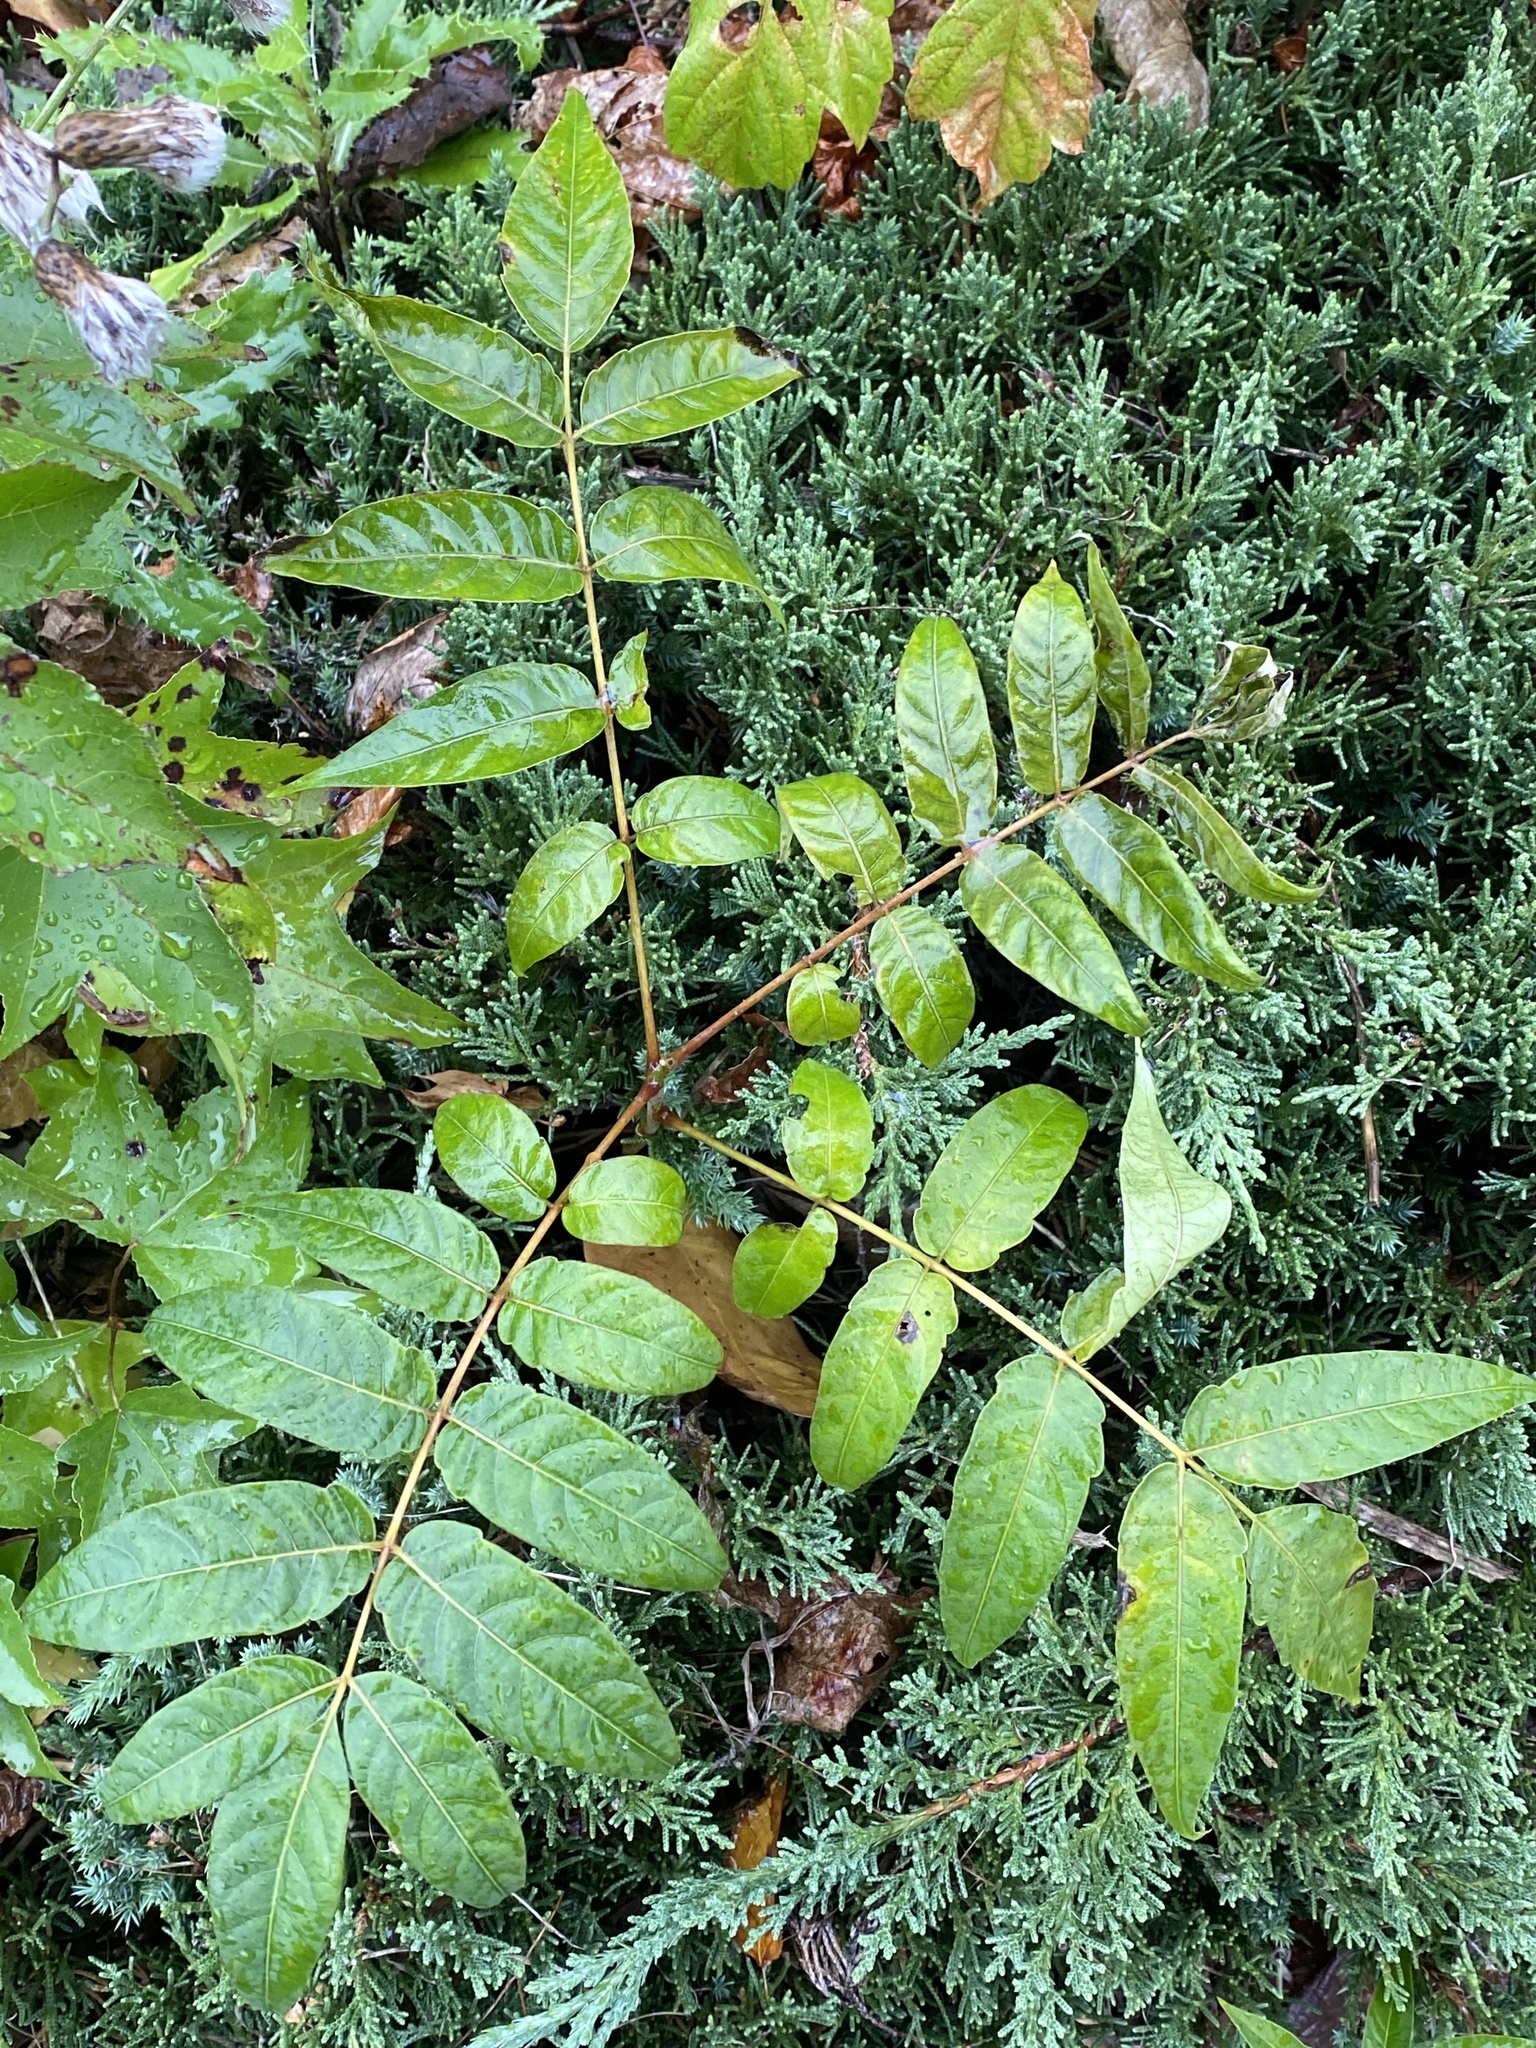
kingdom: Plantae
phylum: Tracheophyta
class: Magnoliopsida
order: Sapindales
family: Simaroubaceae
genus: Ailanthus
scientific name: Ailanthus altissima
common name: Tree-of-heaven
